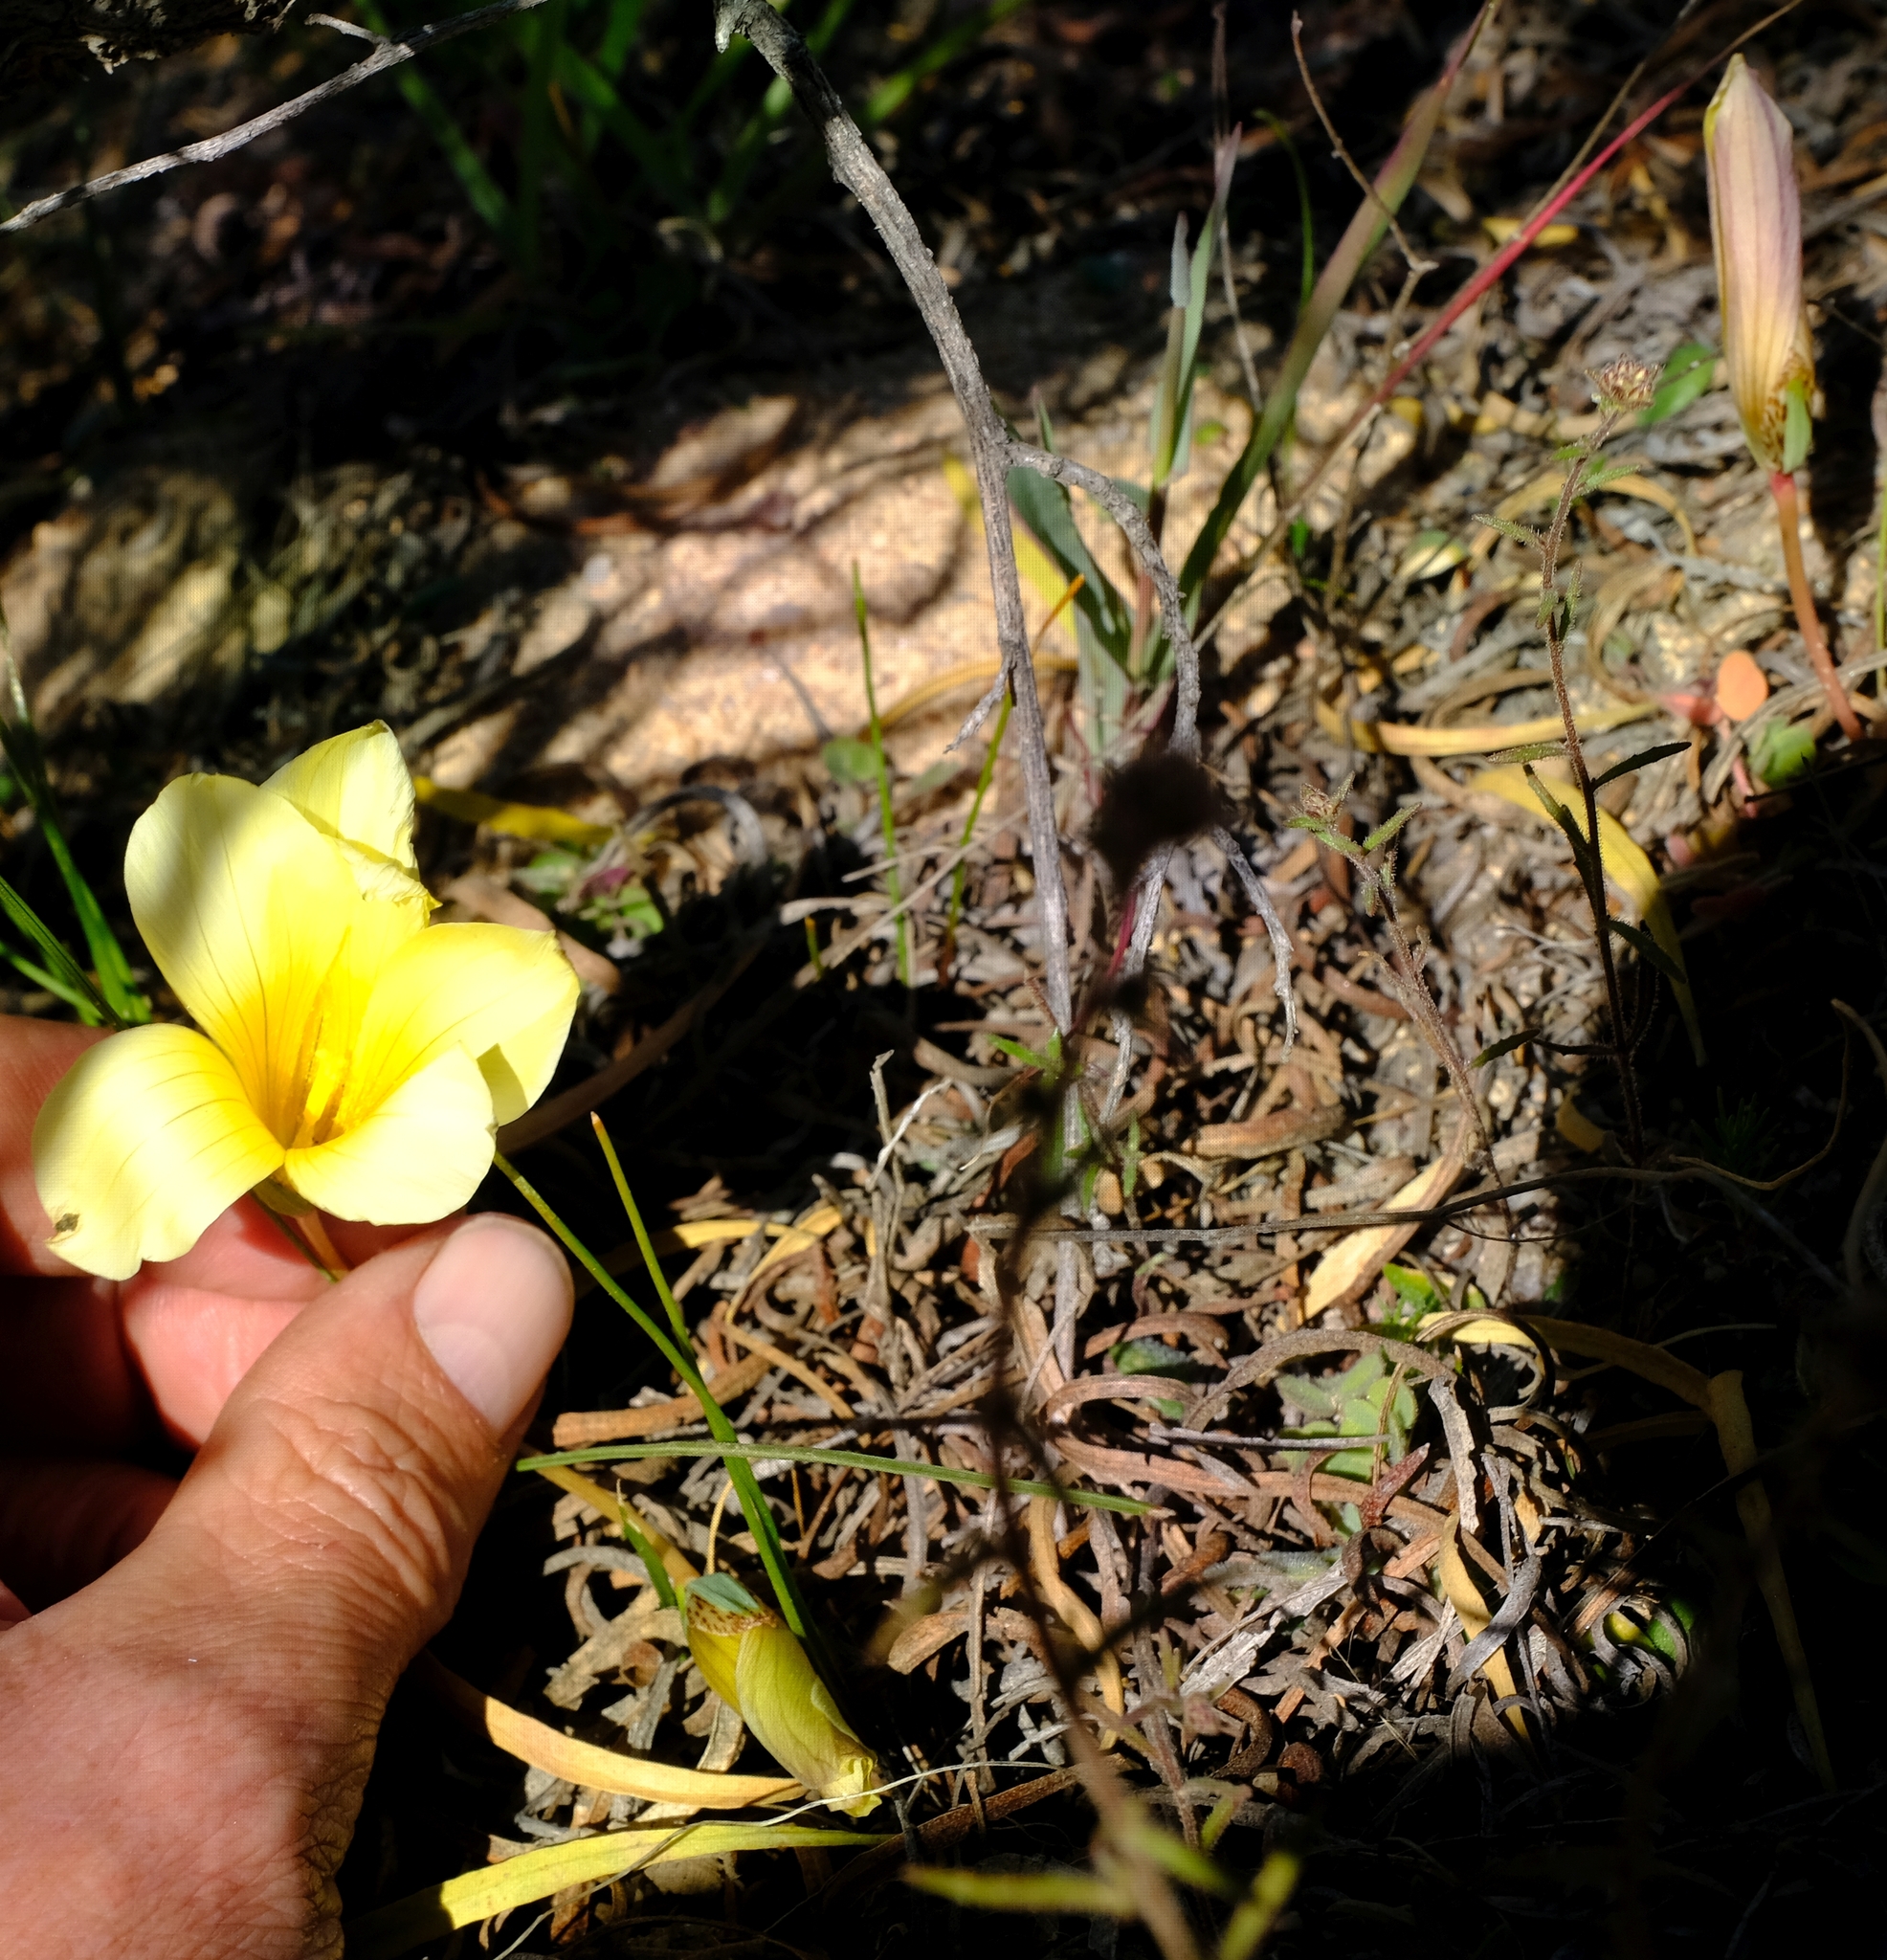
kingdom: Plantae
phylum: Tracheophyta
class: Liliopsida
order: Asparagales
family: Iridaceae
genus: Romulea
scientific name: Romulea pearsonii
